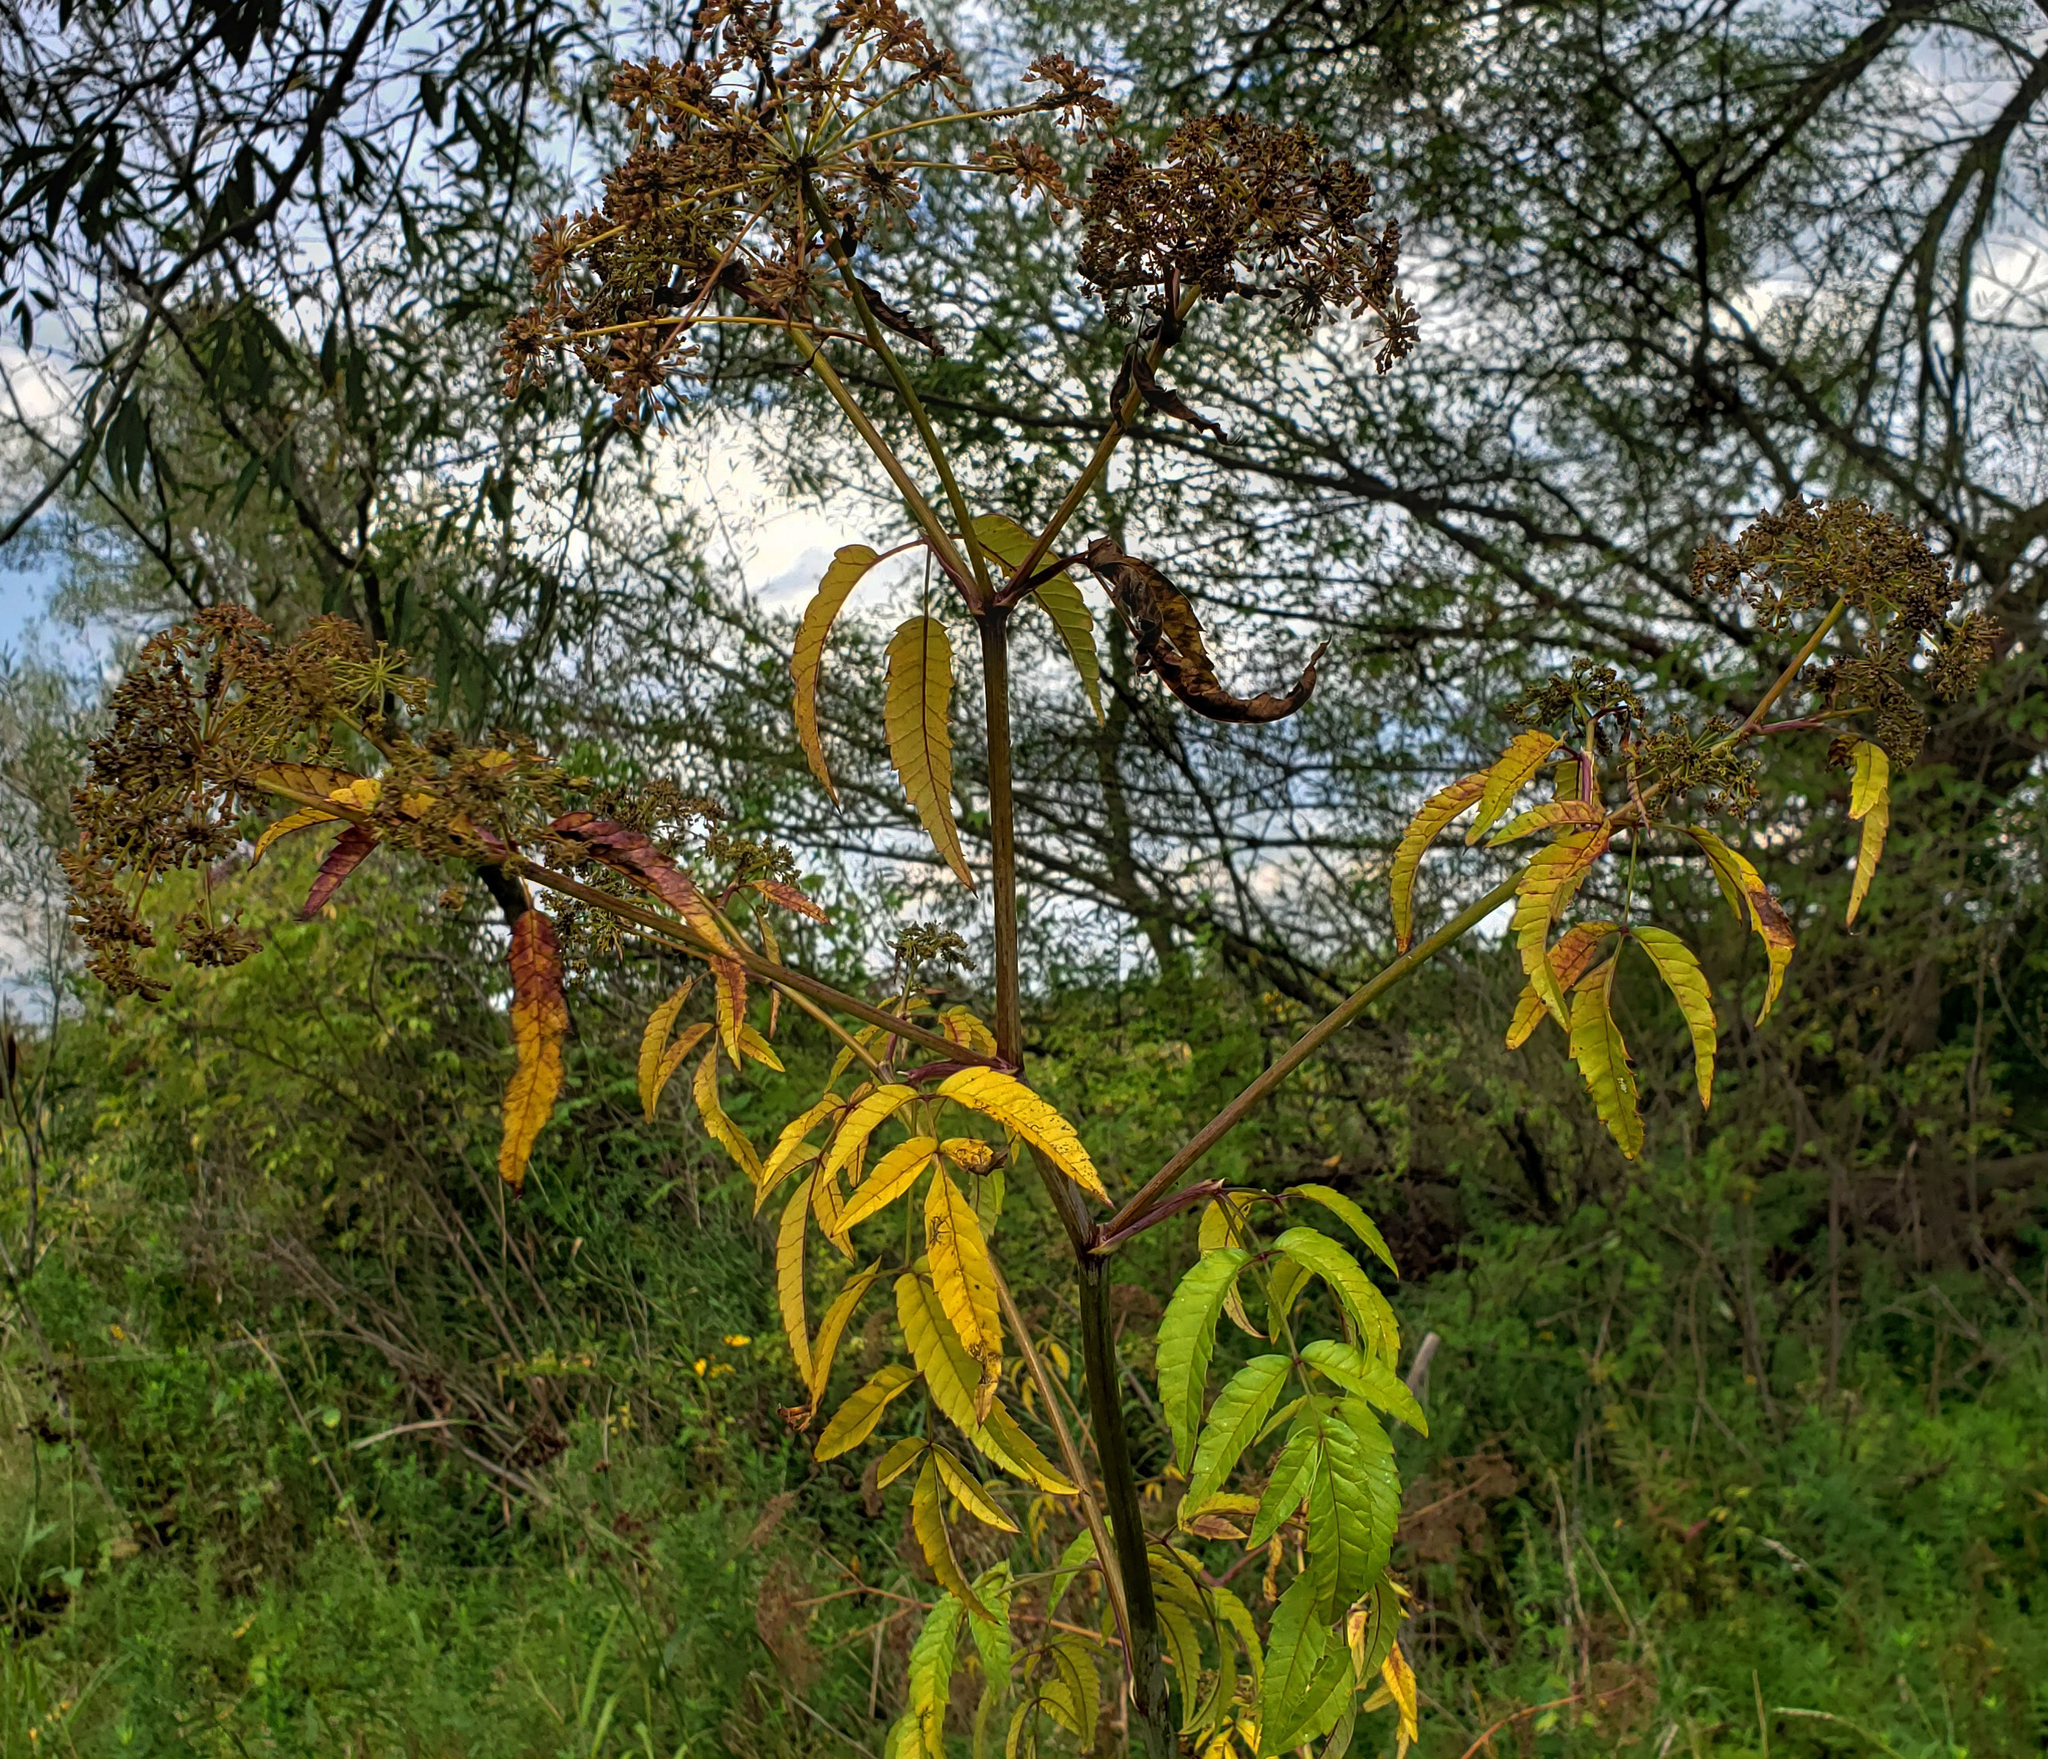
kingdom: Plantae
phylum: Tracheophyta
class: Magnoliopsida
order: Apiales
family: Apiaceae
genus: Cicuta
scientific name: Cicuta maculata
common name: Spotted cowbane
